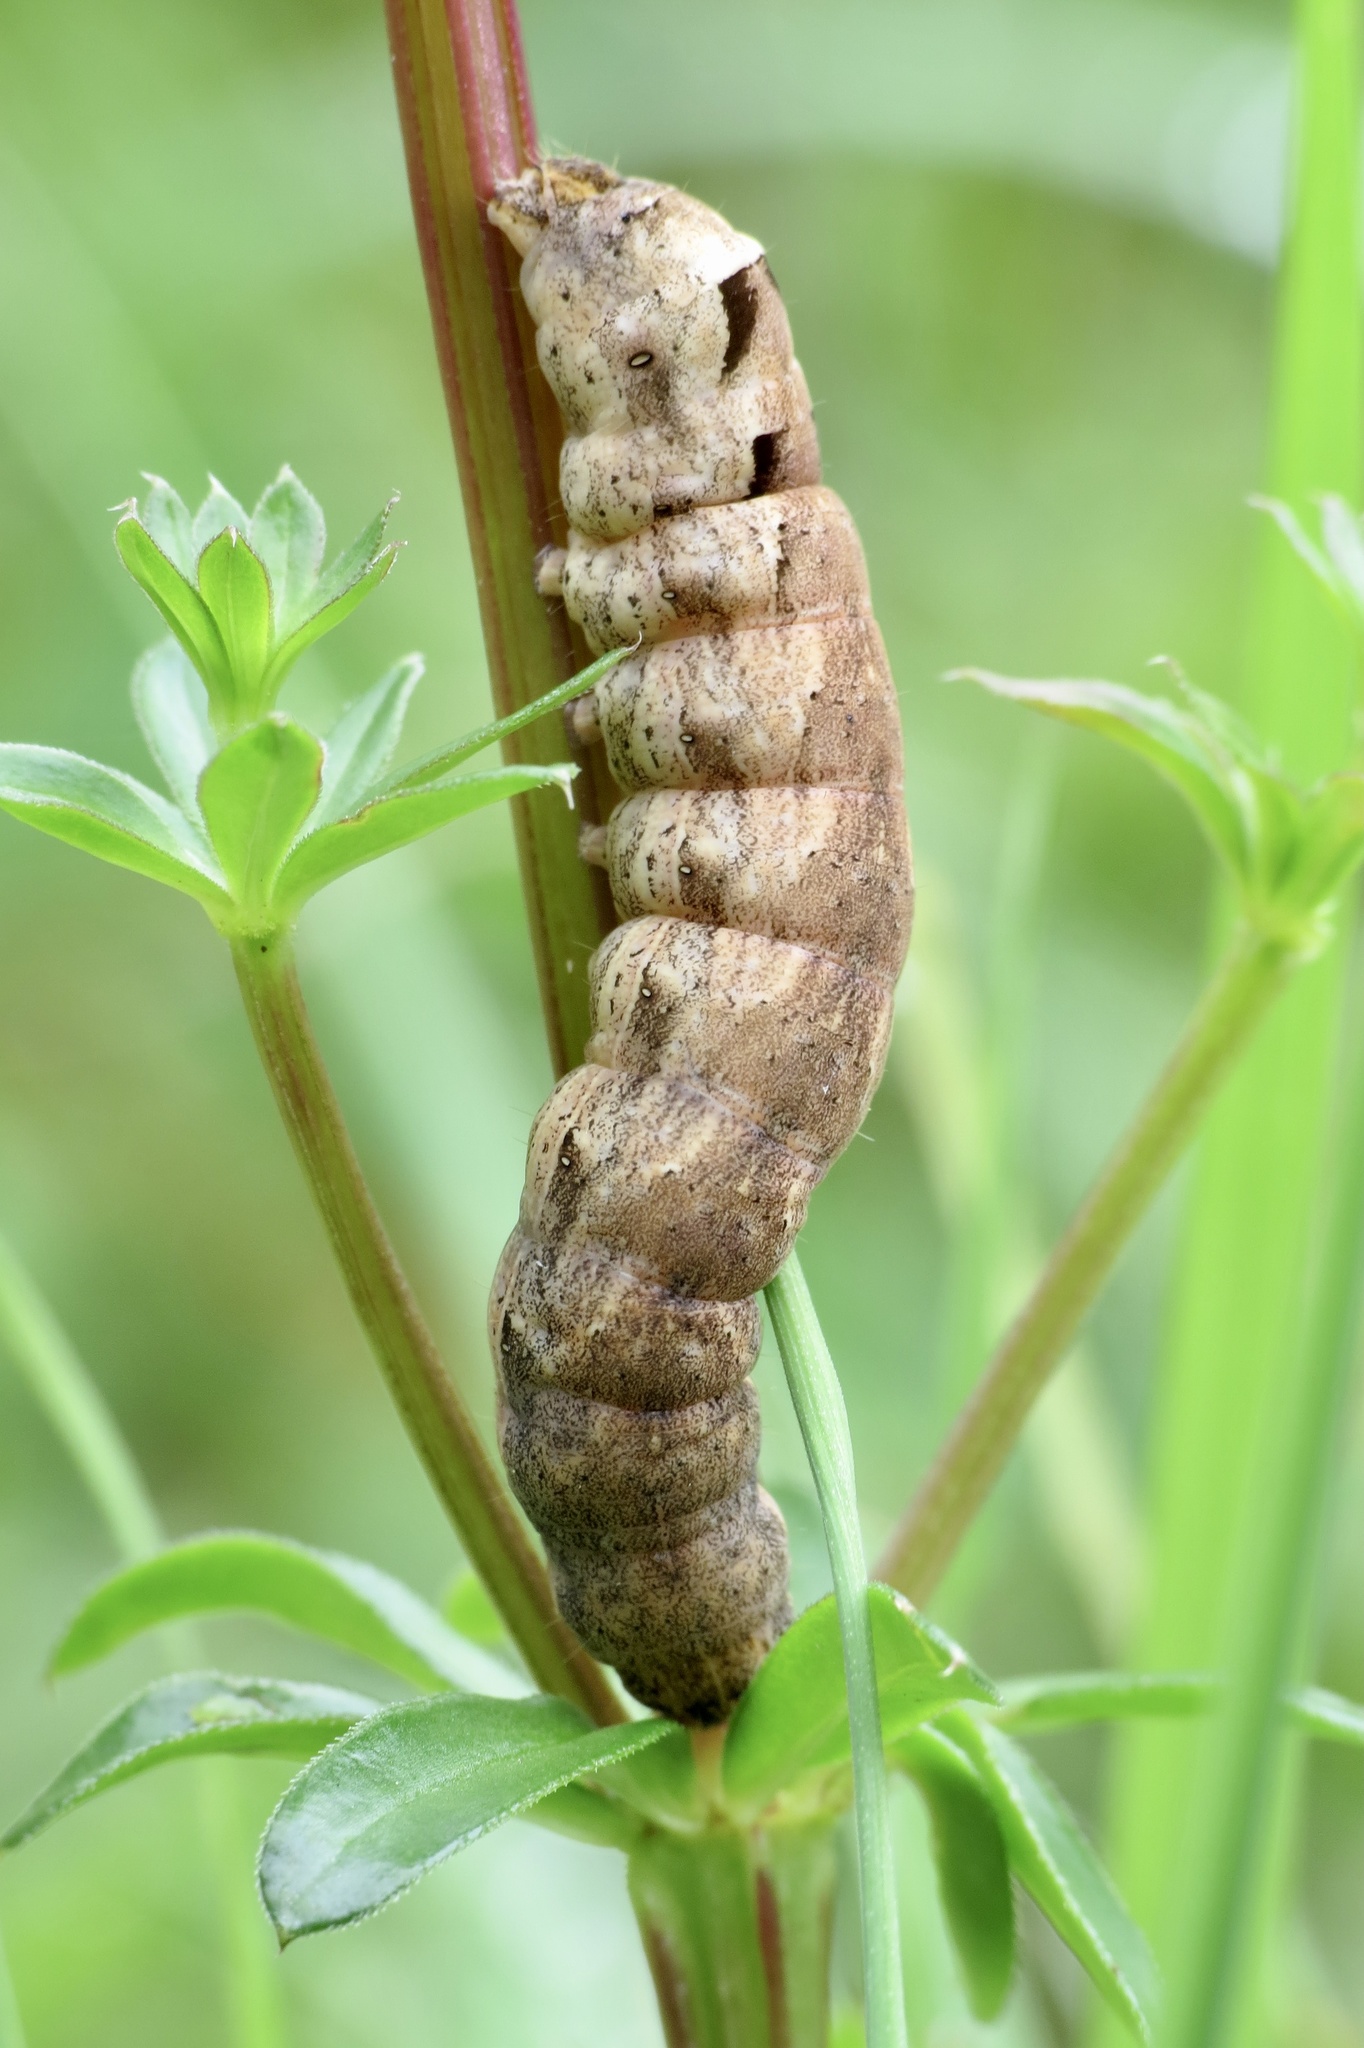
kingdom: Animalia
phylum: Arthropoda
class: Insecta
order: Lepidoptera
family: Noctuidae
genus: Noctua
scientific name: Noctua comes
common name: Lesser yellow underwing
